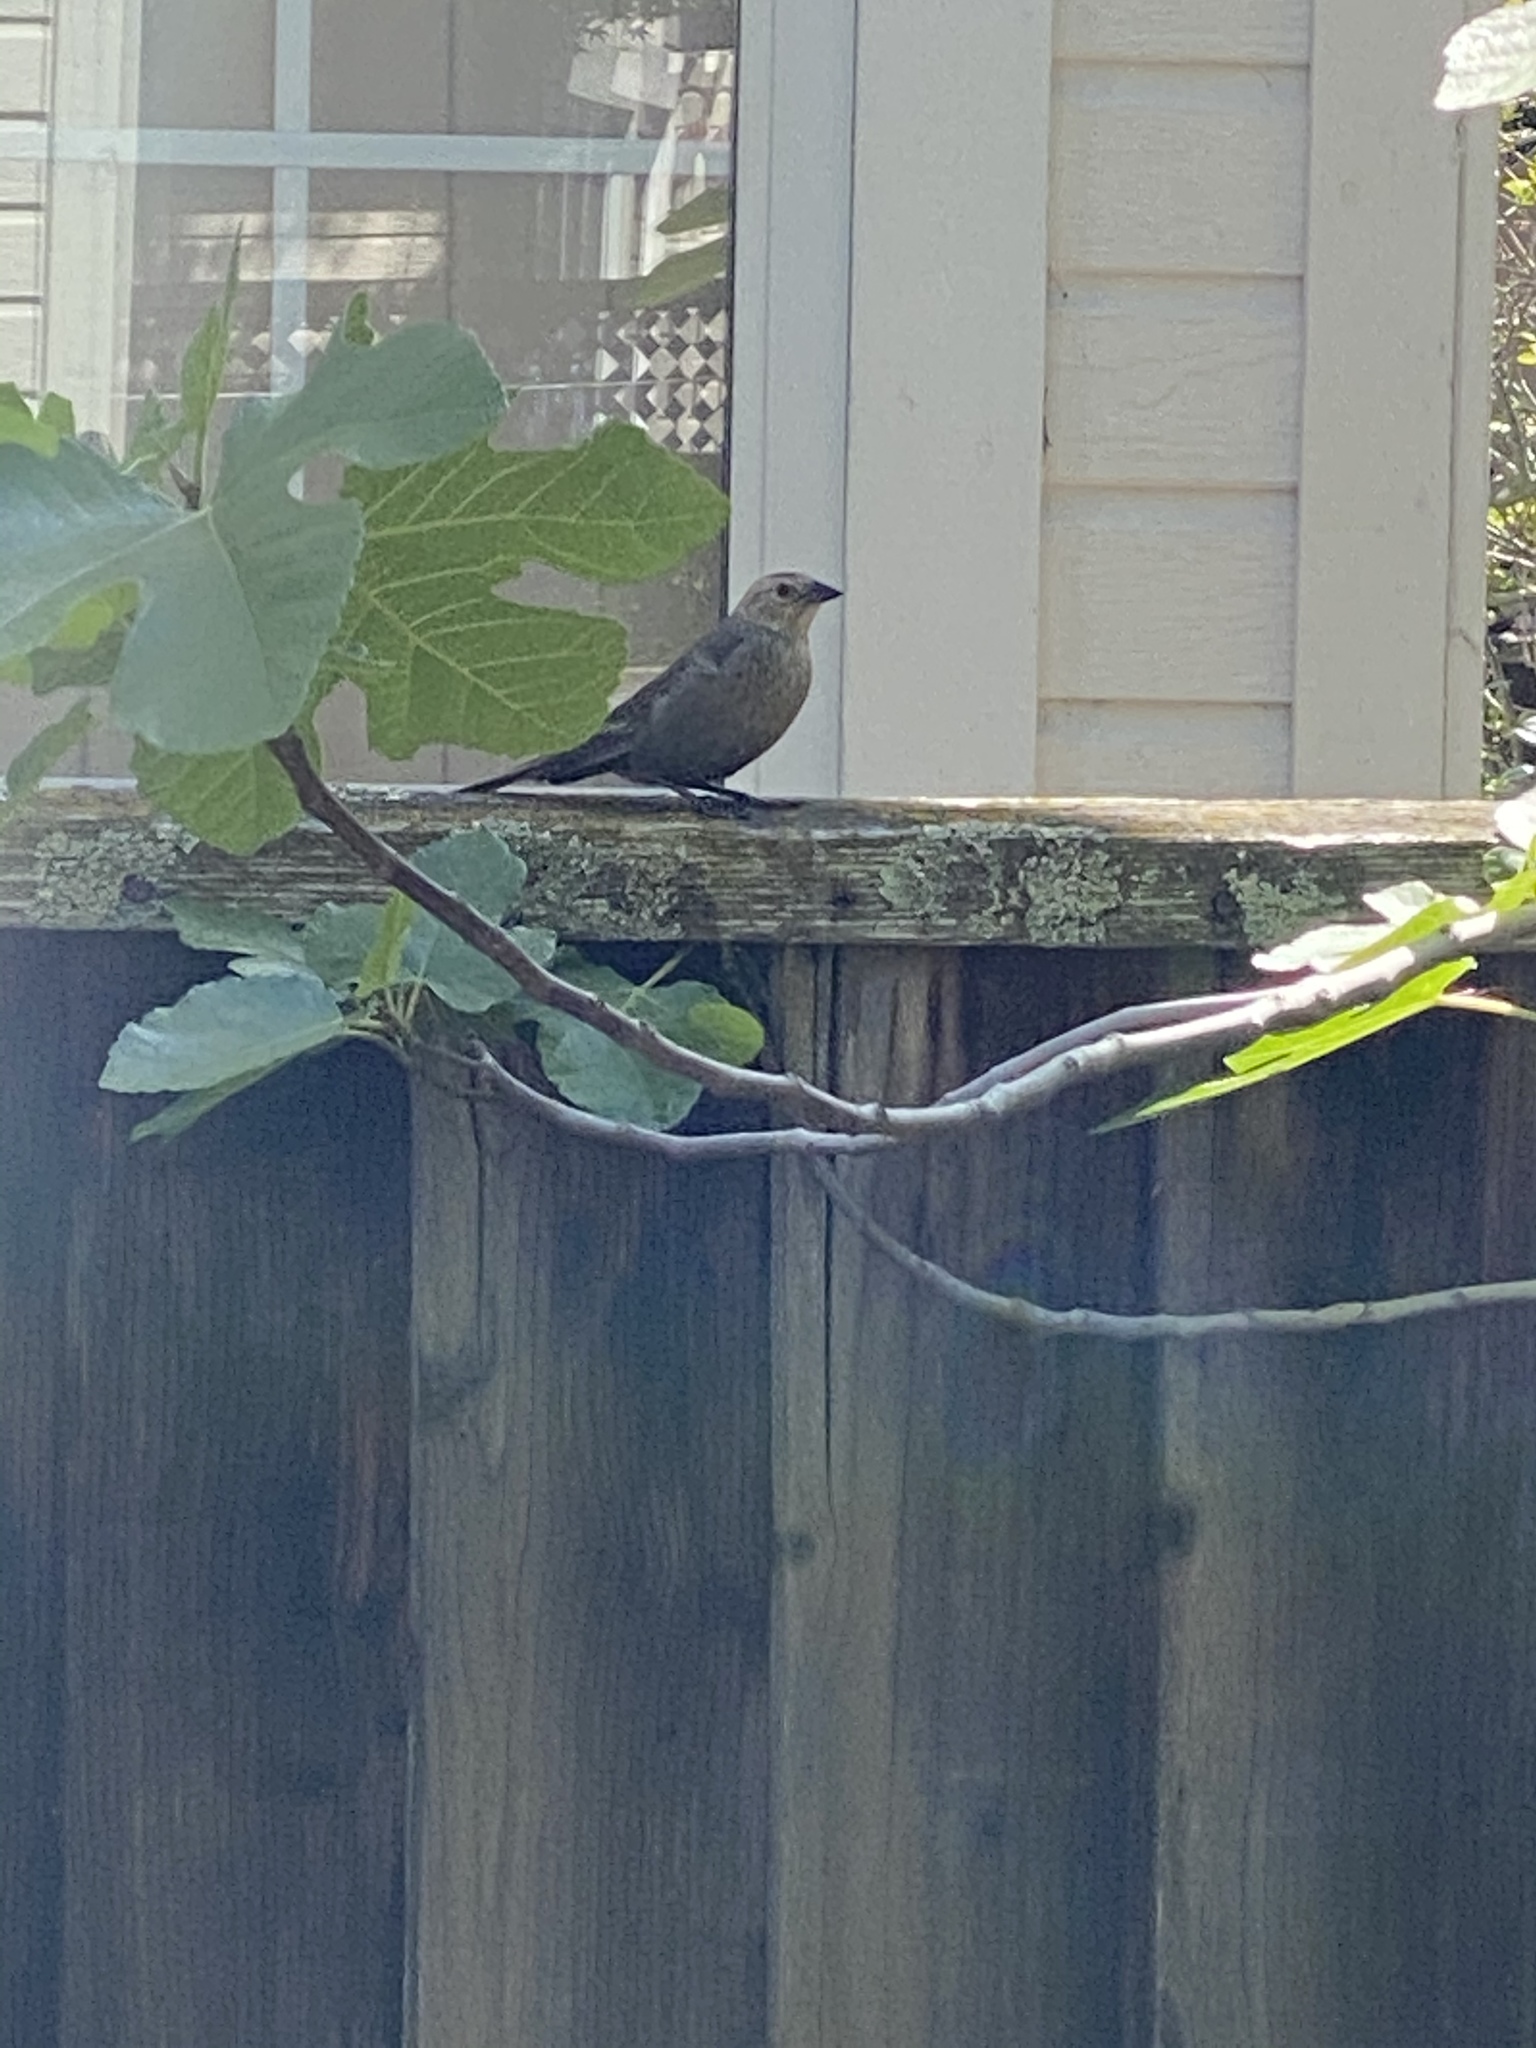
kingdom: Animalia
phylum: Chordata
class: Aves
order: Passeriformes
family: Icteridae
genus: Molothrus
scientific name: Molothrus ater
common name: Brown-headed cowbird
